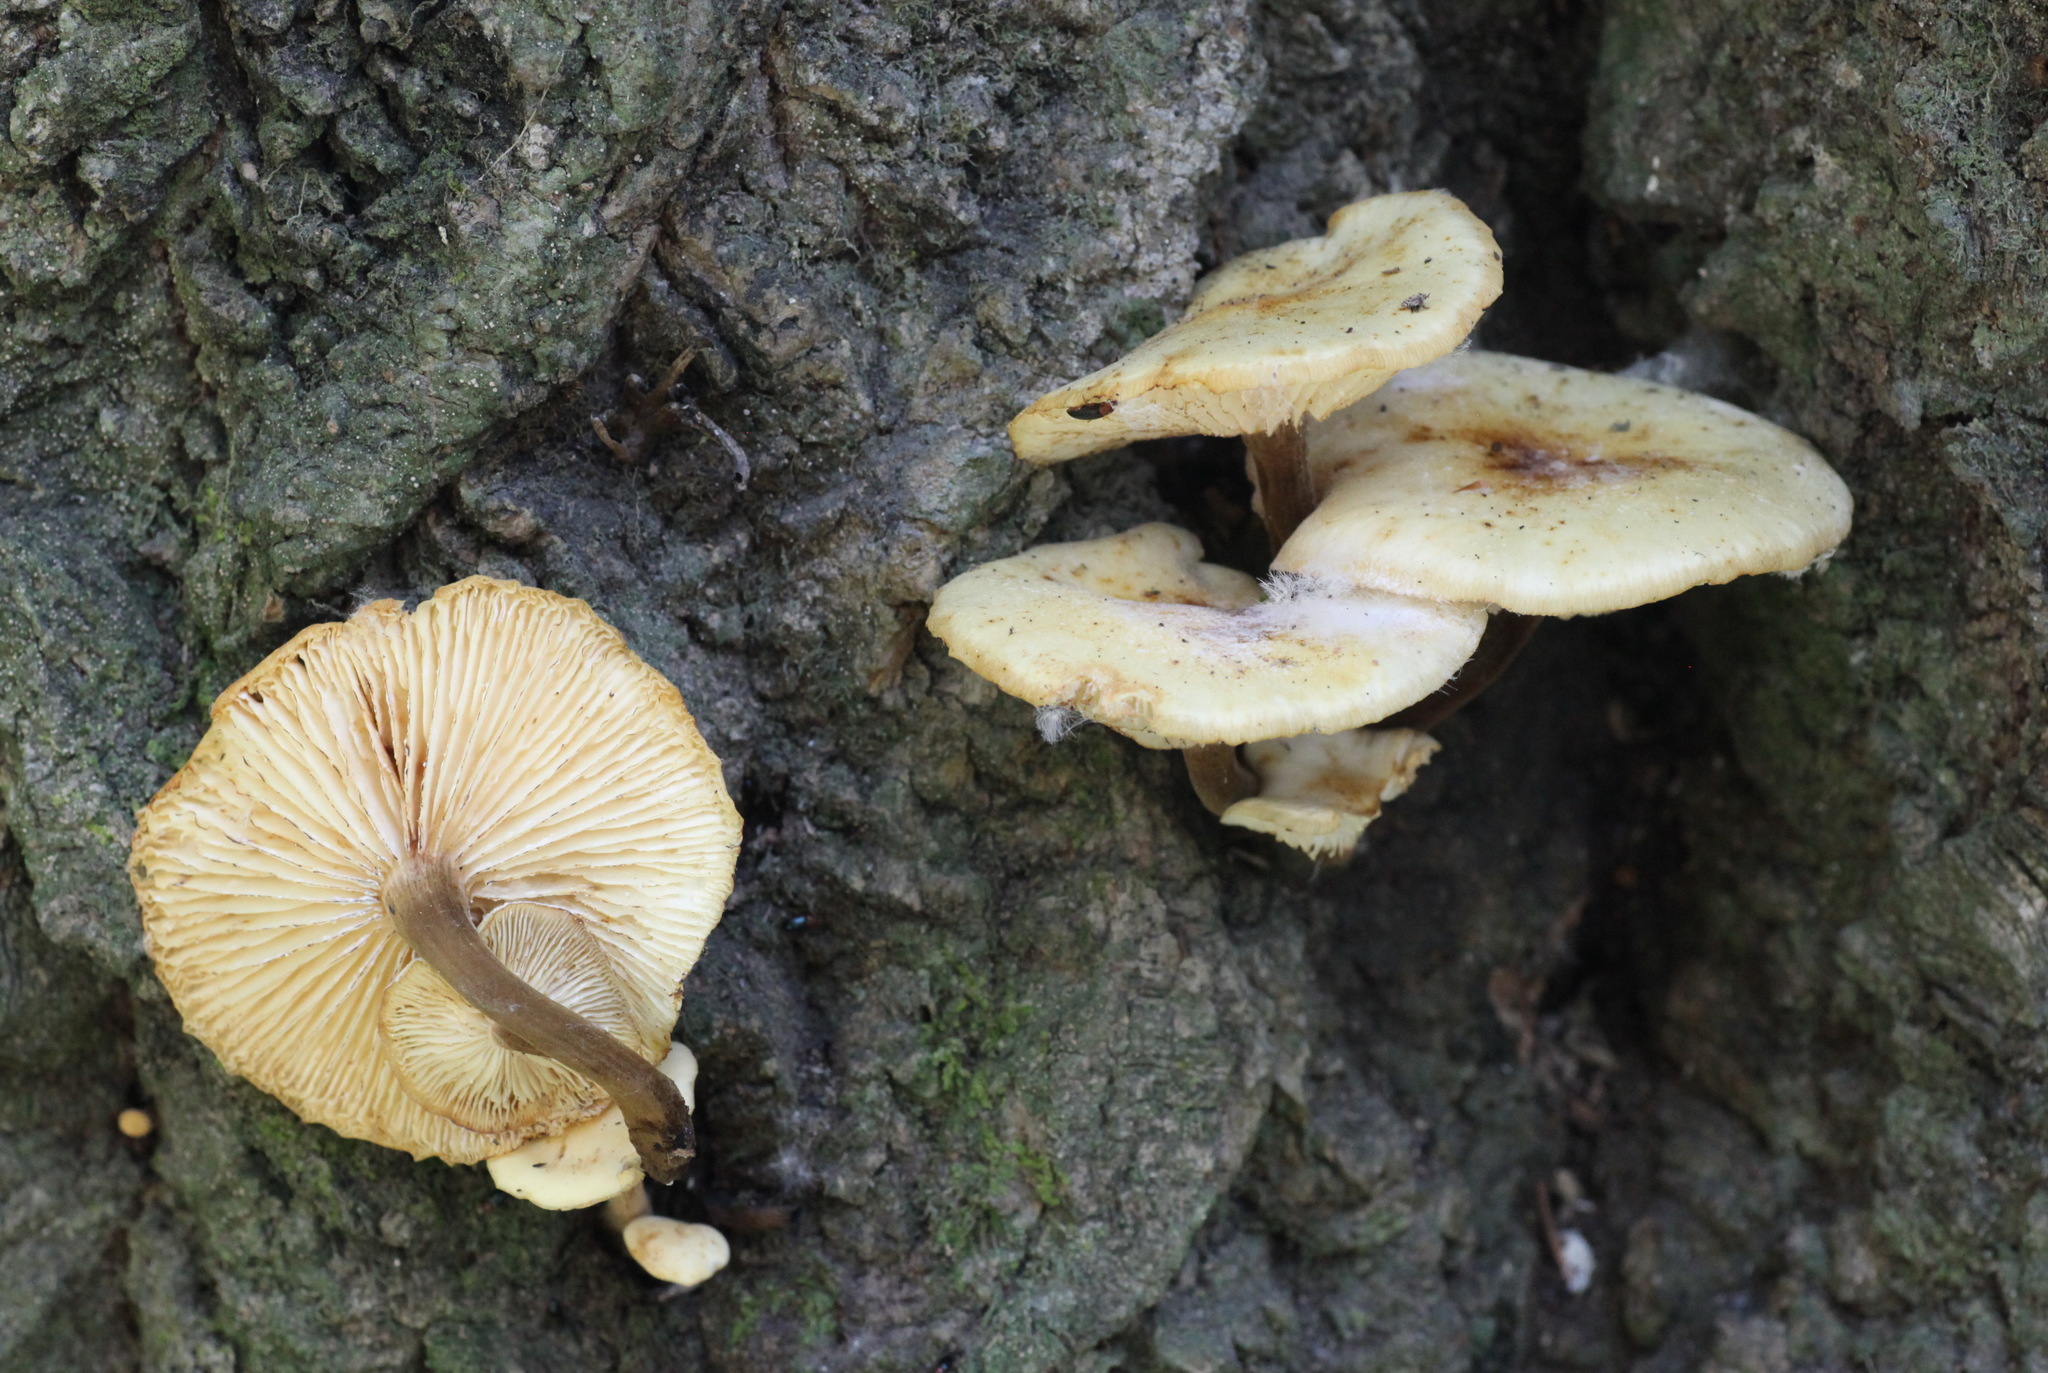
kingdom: Fungi
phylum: Basidiomycota
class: Agaricomycetes
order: Agaricales
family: Physalacriaceae
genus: Flammulina
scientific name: Flammulina velutipes
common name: Velvet shank
